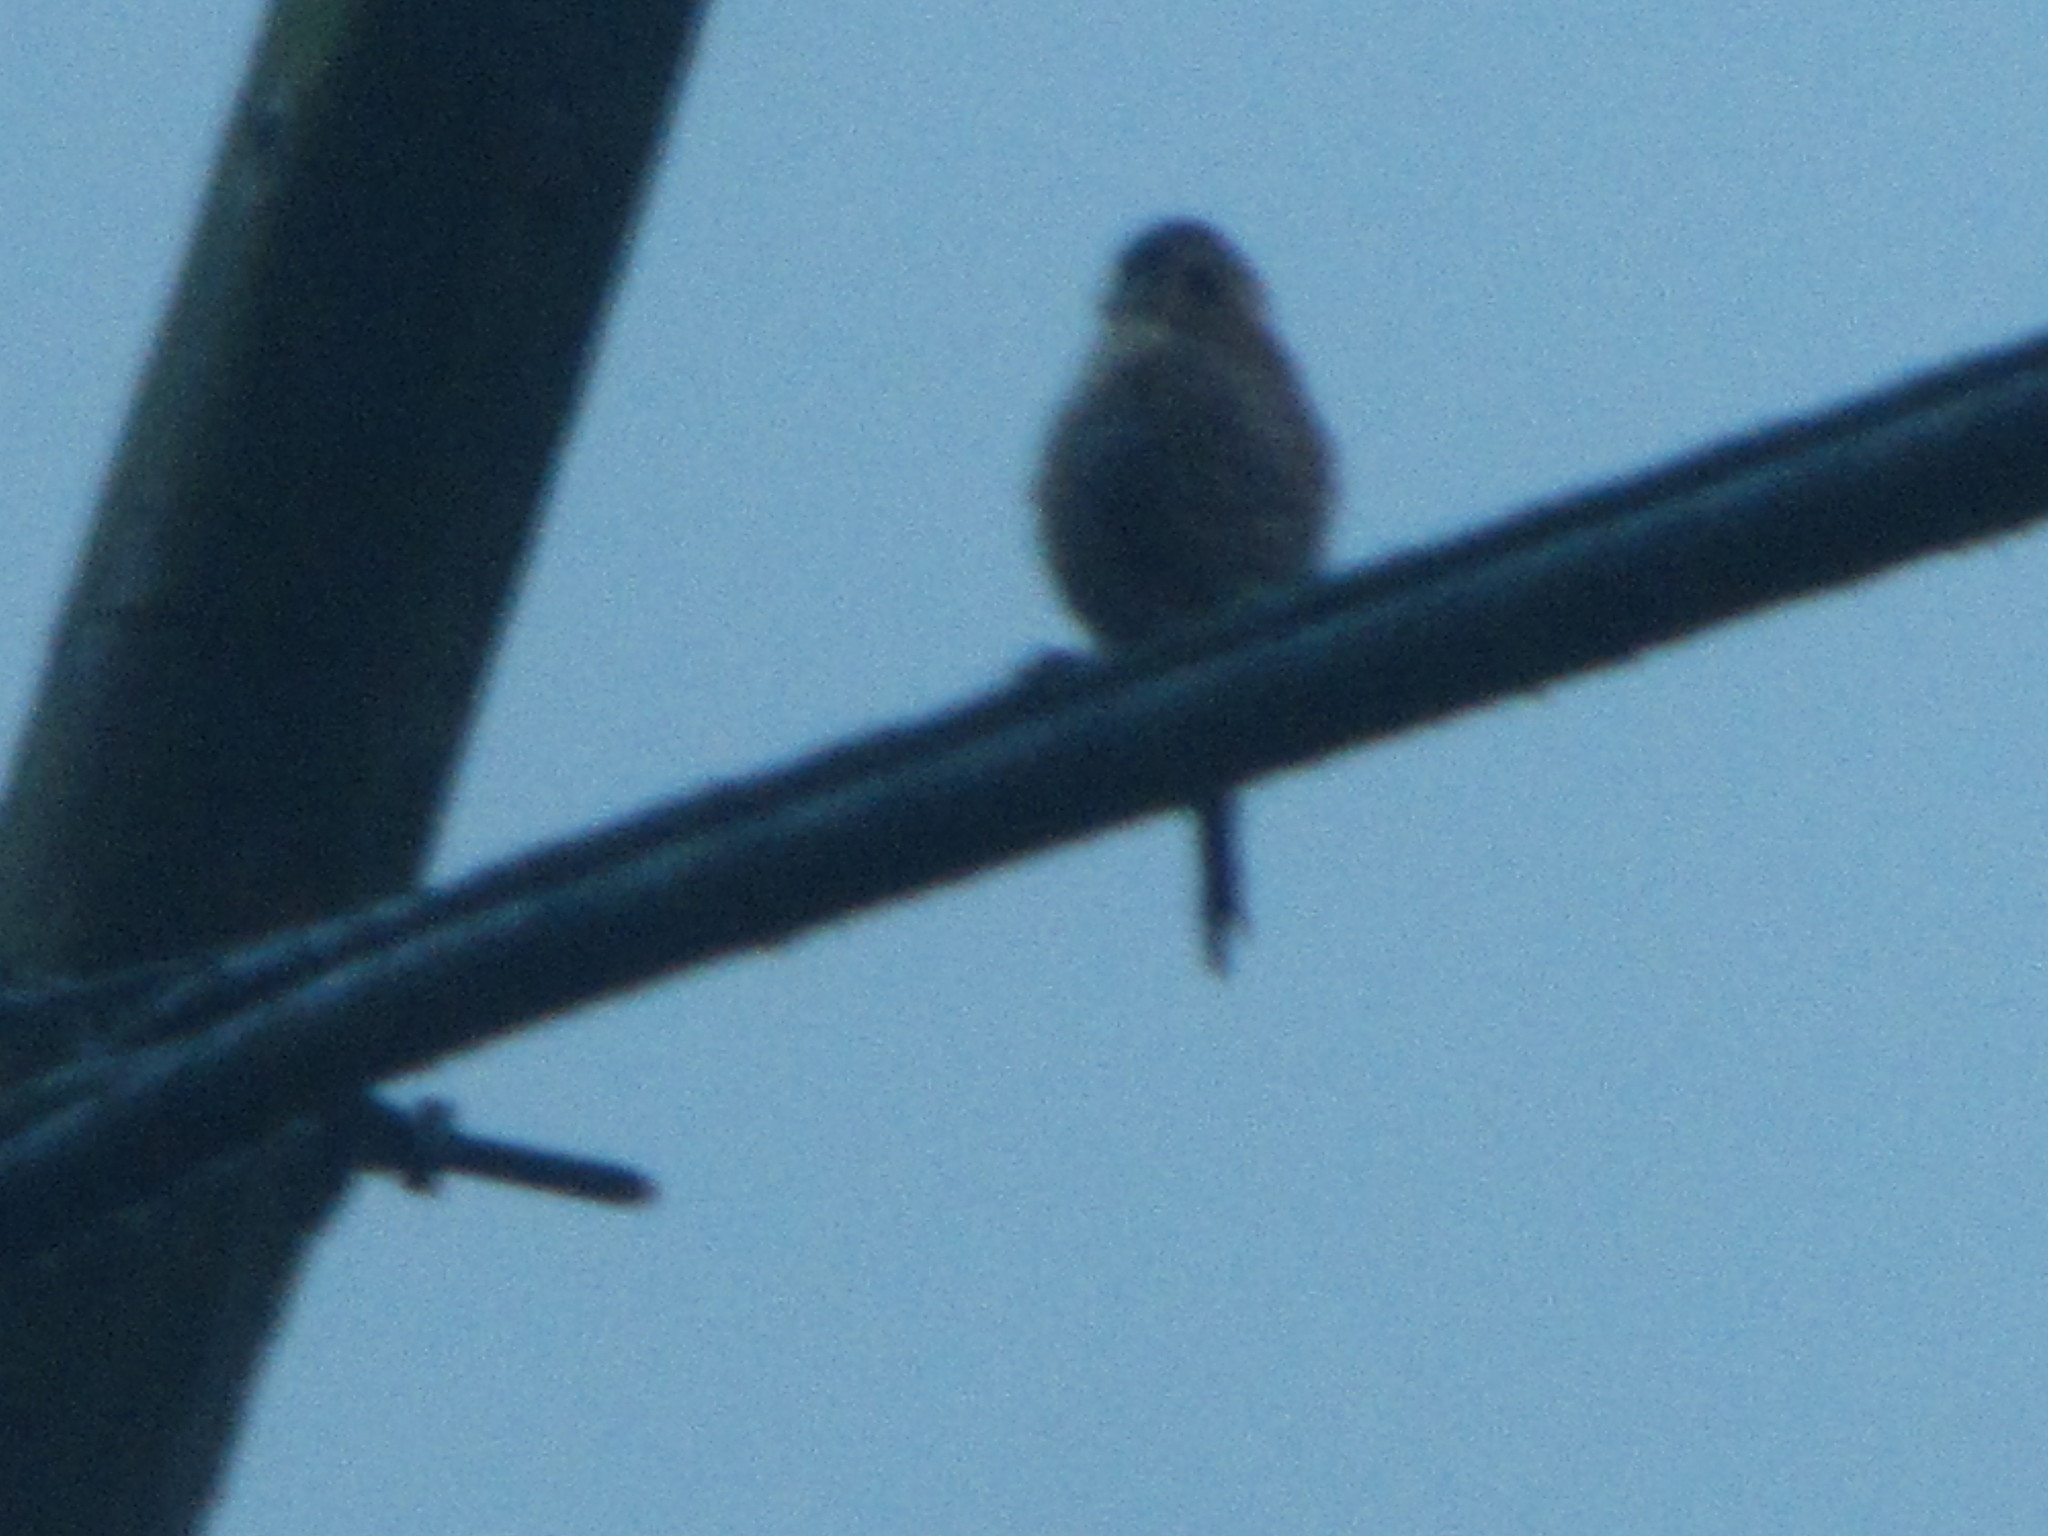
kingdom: Animalia
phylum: Chordata
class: Aves
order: Falconiformes
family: Falconidae
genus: Falco
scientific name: Falco sparverius
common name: American kestrel
